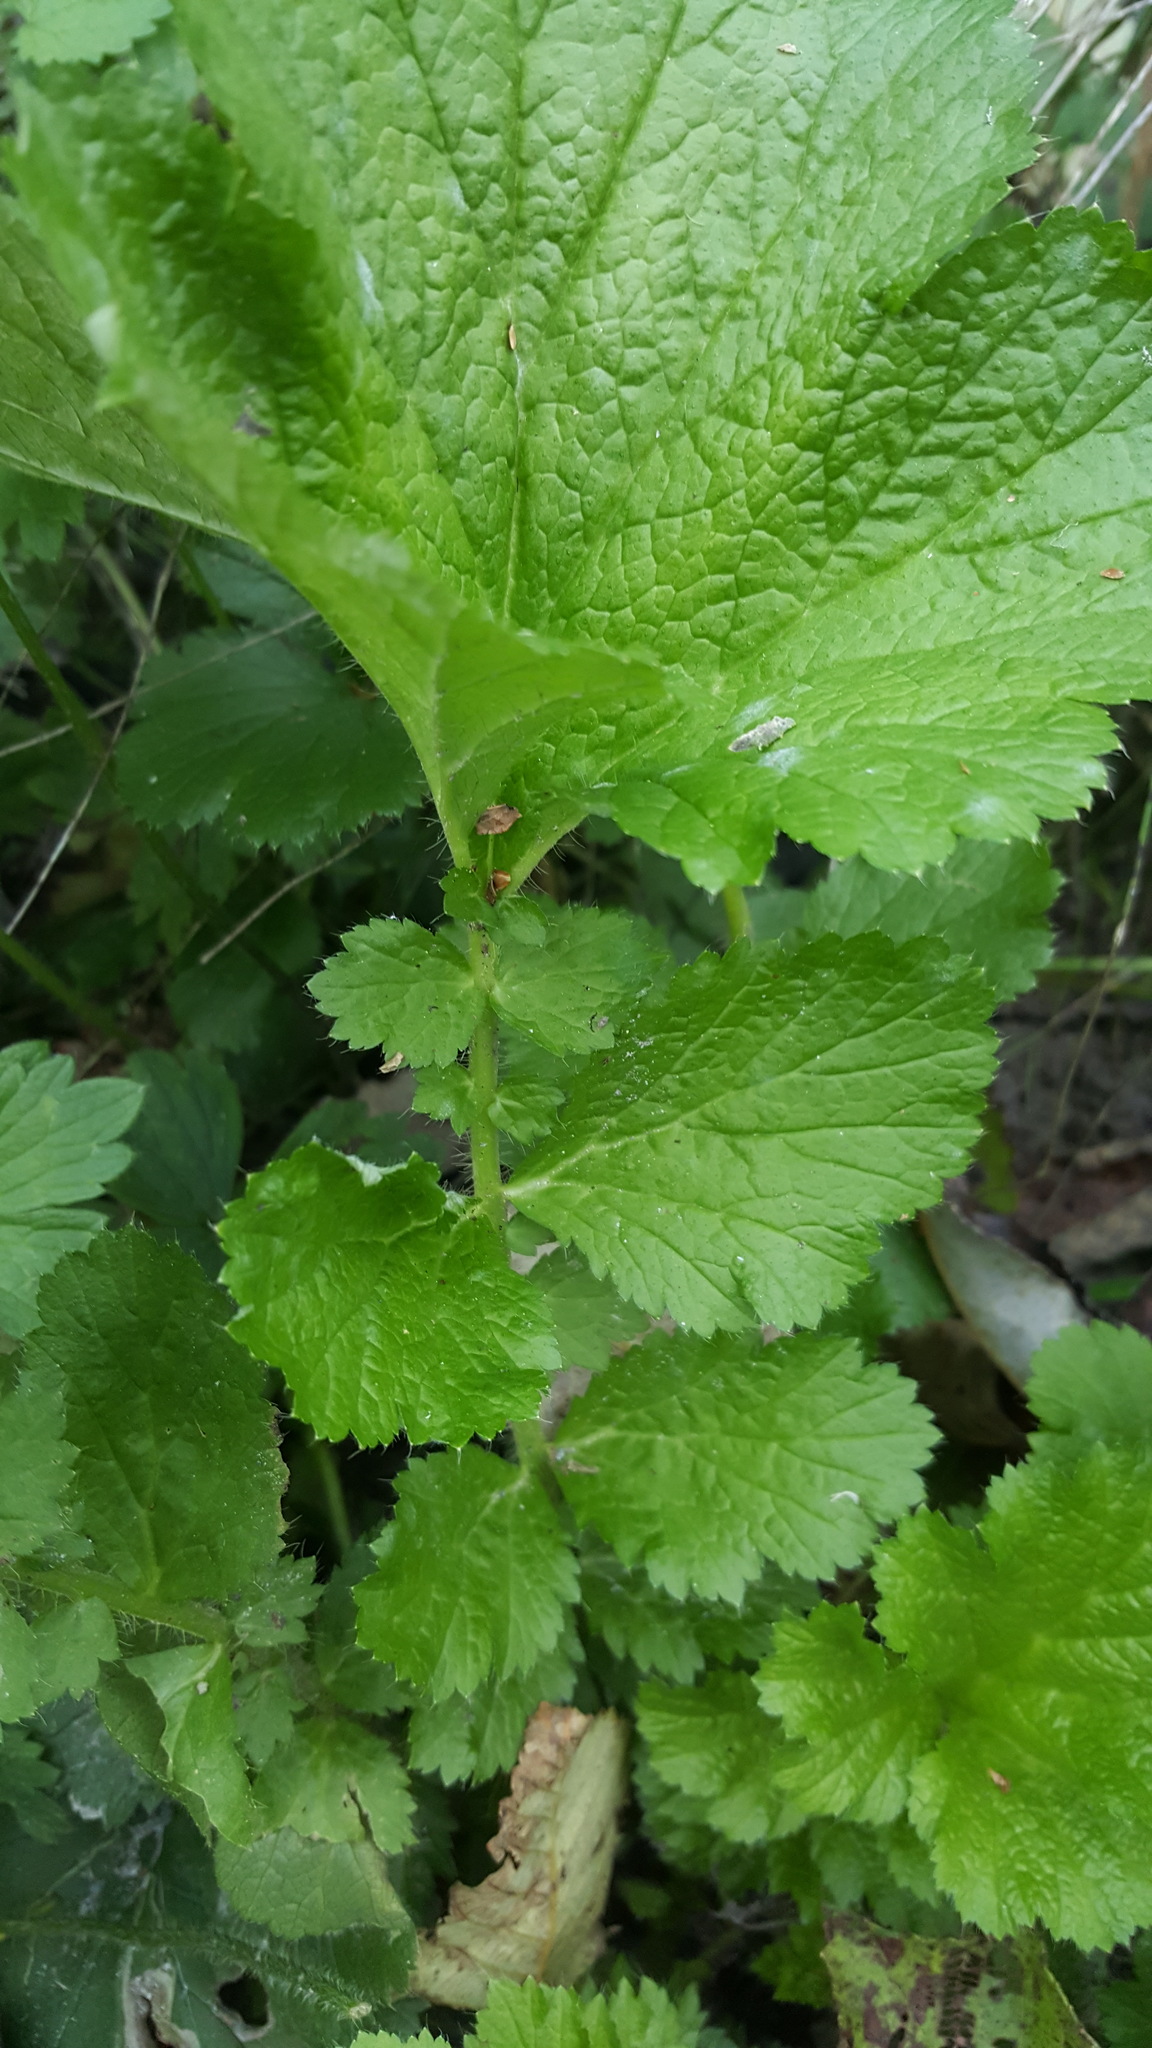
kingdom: Plantae
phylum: Tracheophyta
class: Magnoliopsida
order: Rosales
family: Rosaceae
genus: Geum
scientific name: Geum macrophyllum
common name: Large-leaved avens
